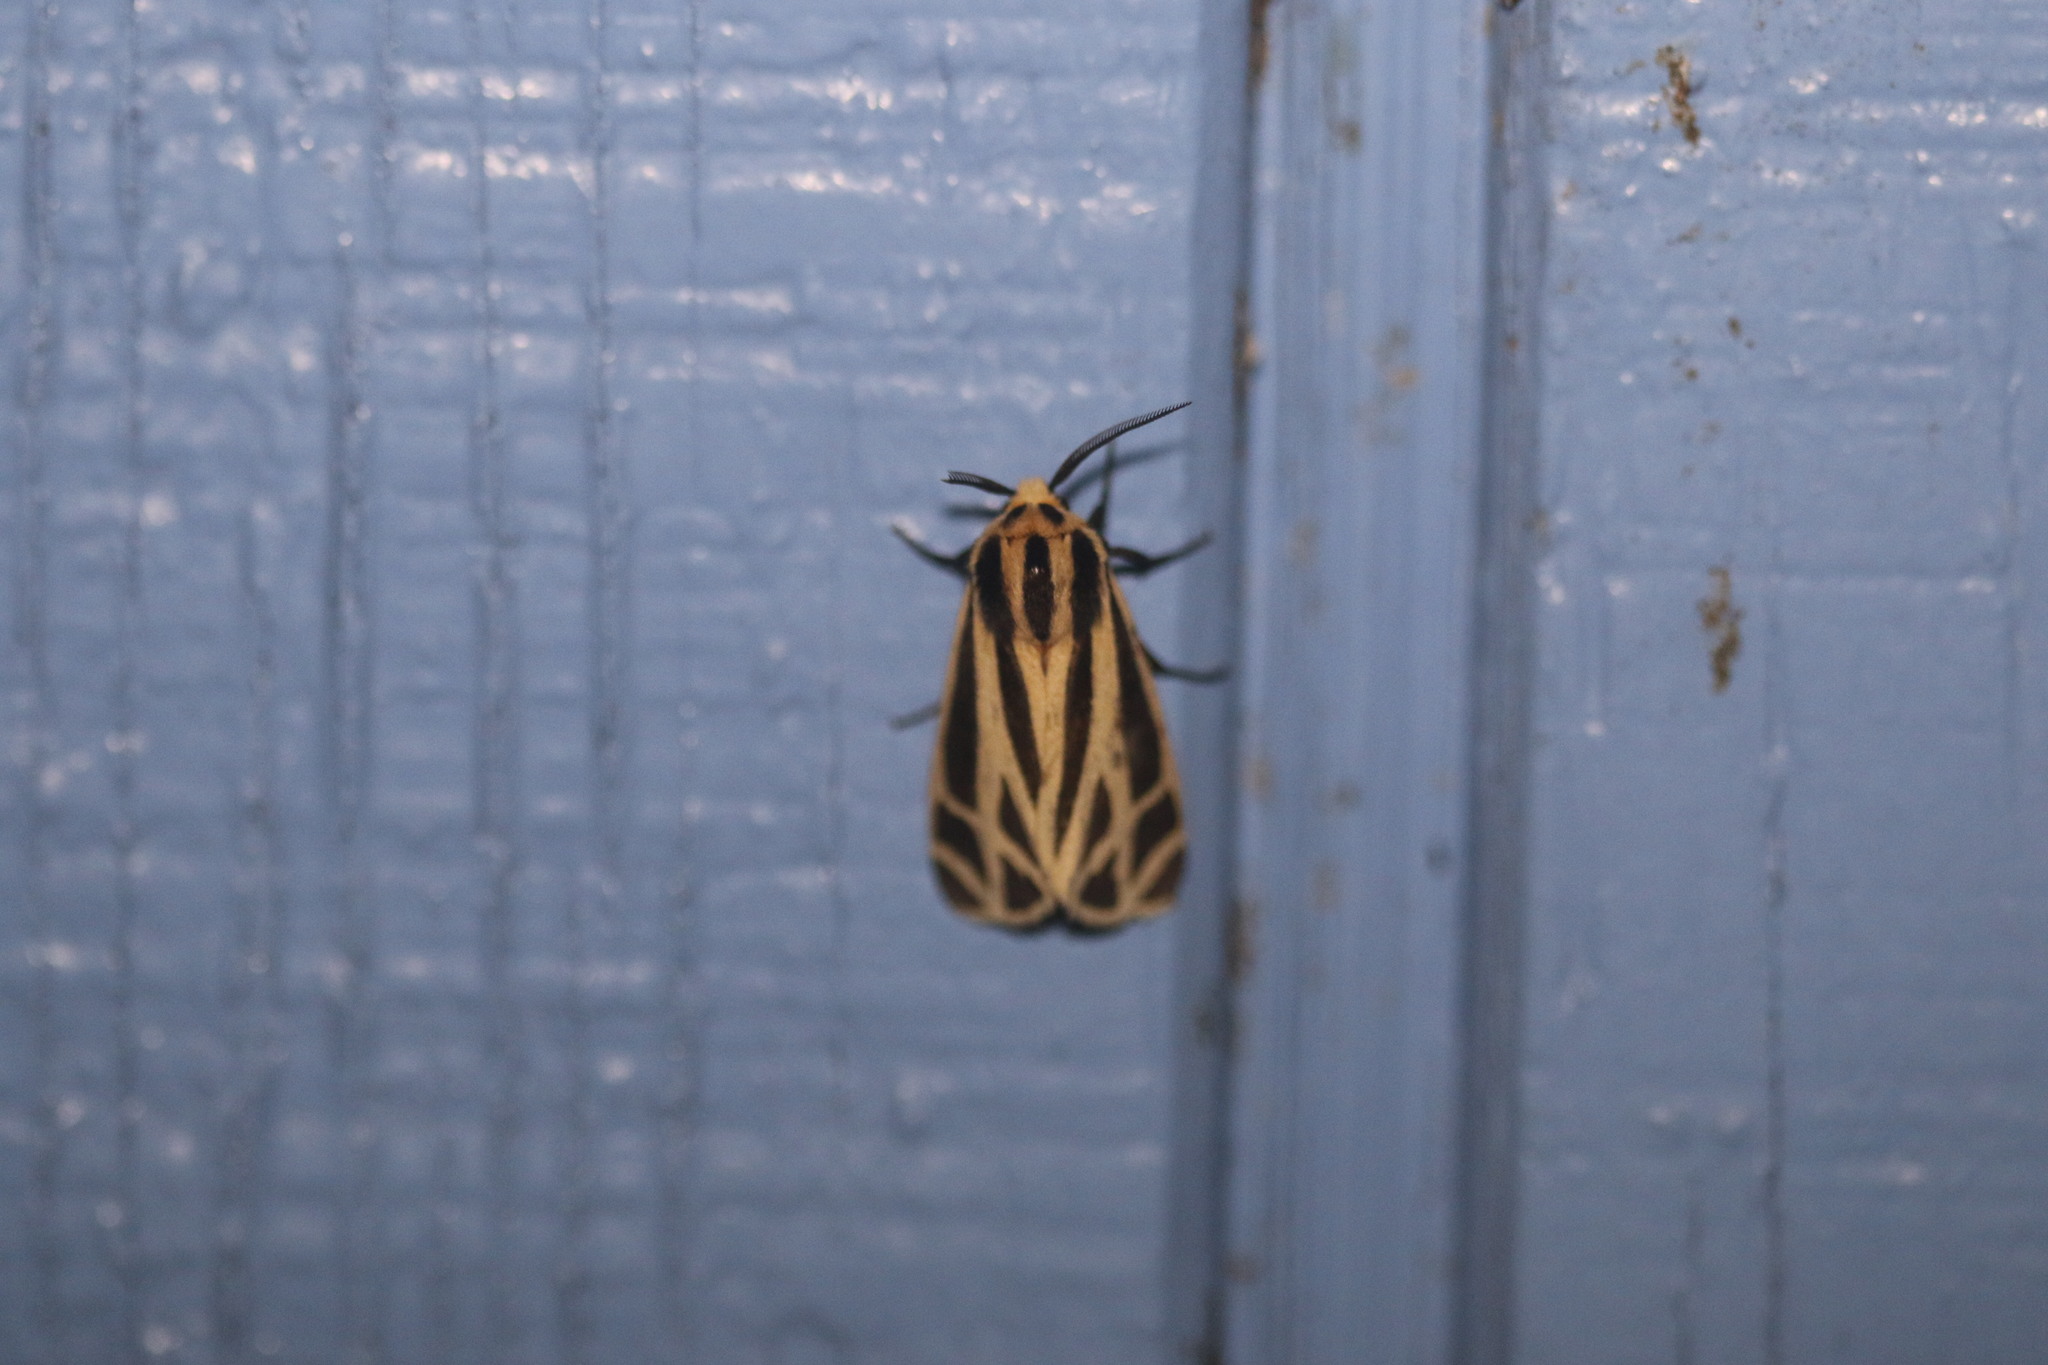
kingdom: Animalia
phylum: Arthropoda
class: Insecta
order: Lepidoptera
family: Erebidae
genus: Apantesis
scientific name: Apantesis phalerata
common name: Harnessed tiger moth
